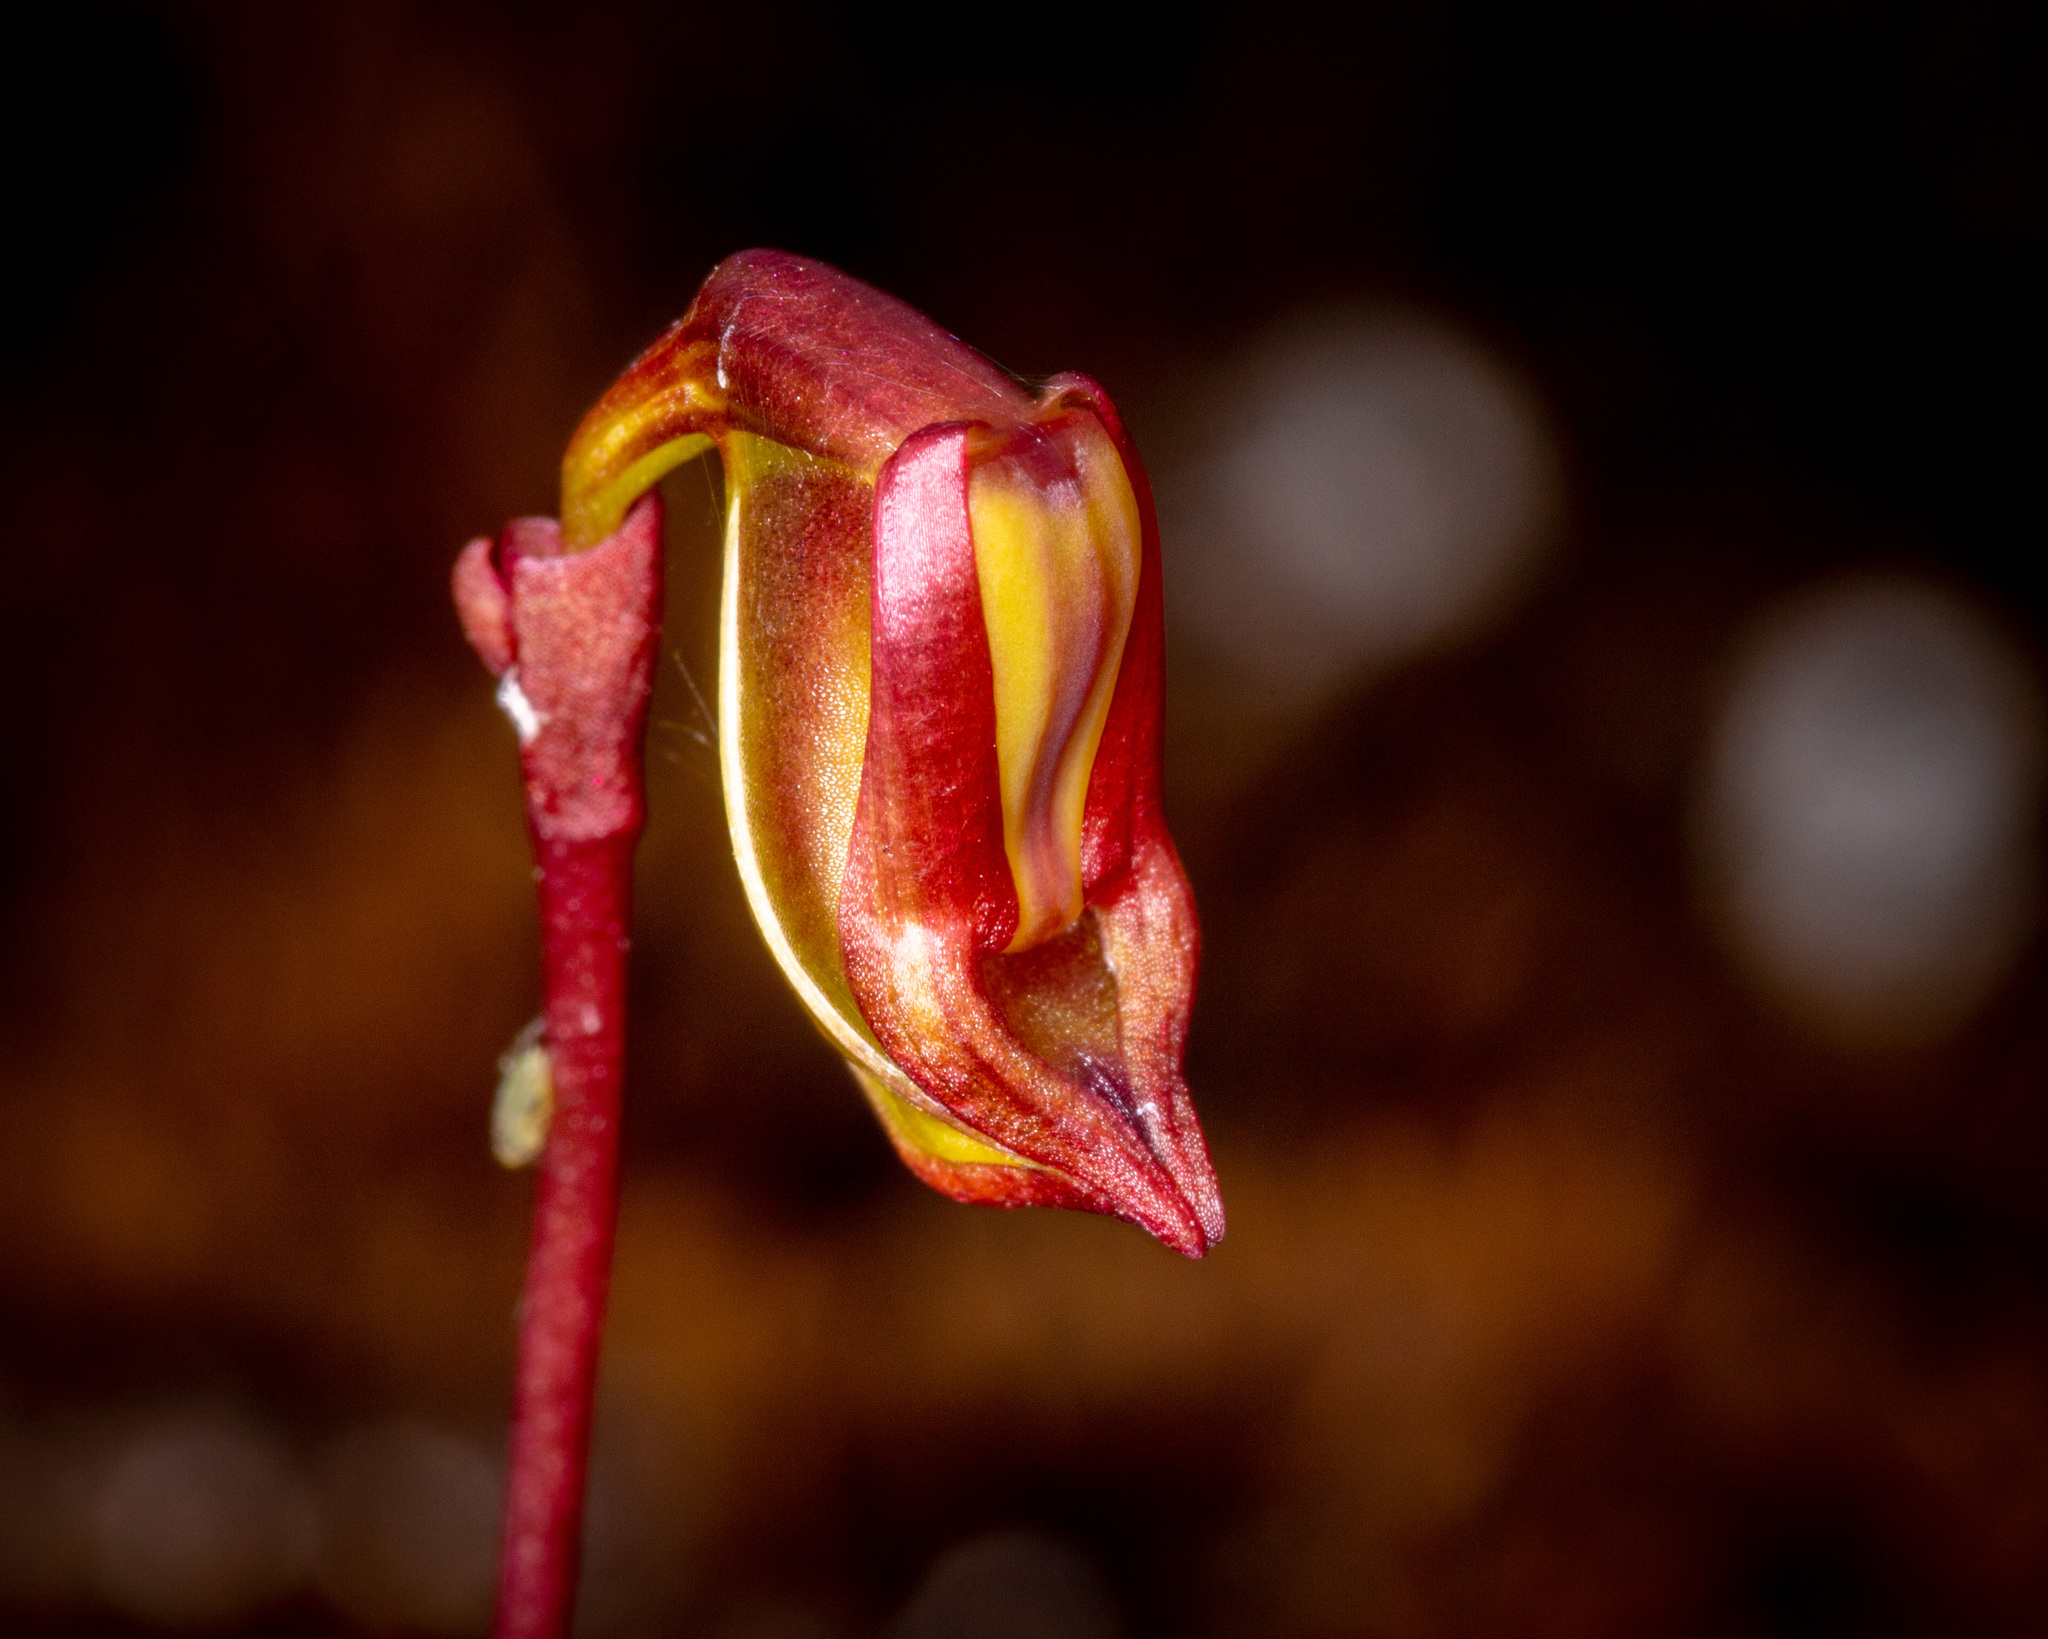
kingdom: Plantae
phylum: Tracheophyta
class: Liliopsida
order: Asparagales
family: Orchidaceae
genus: Caleana
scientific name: Caleana granitica
